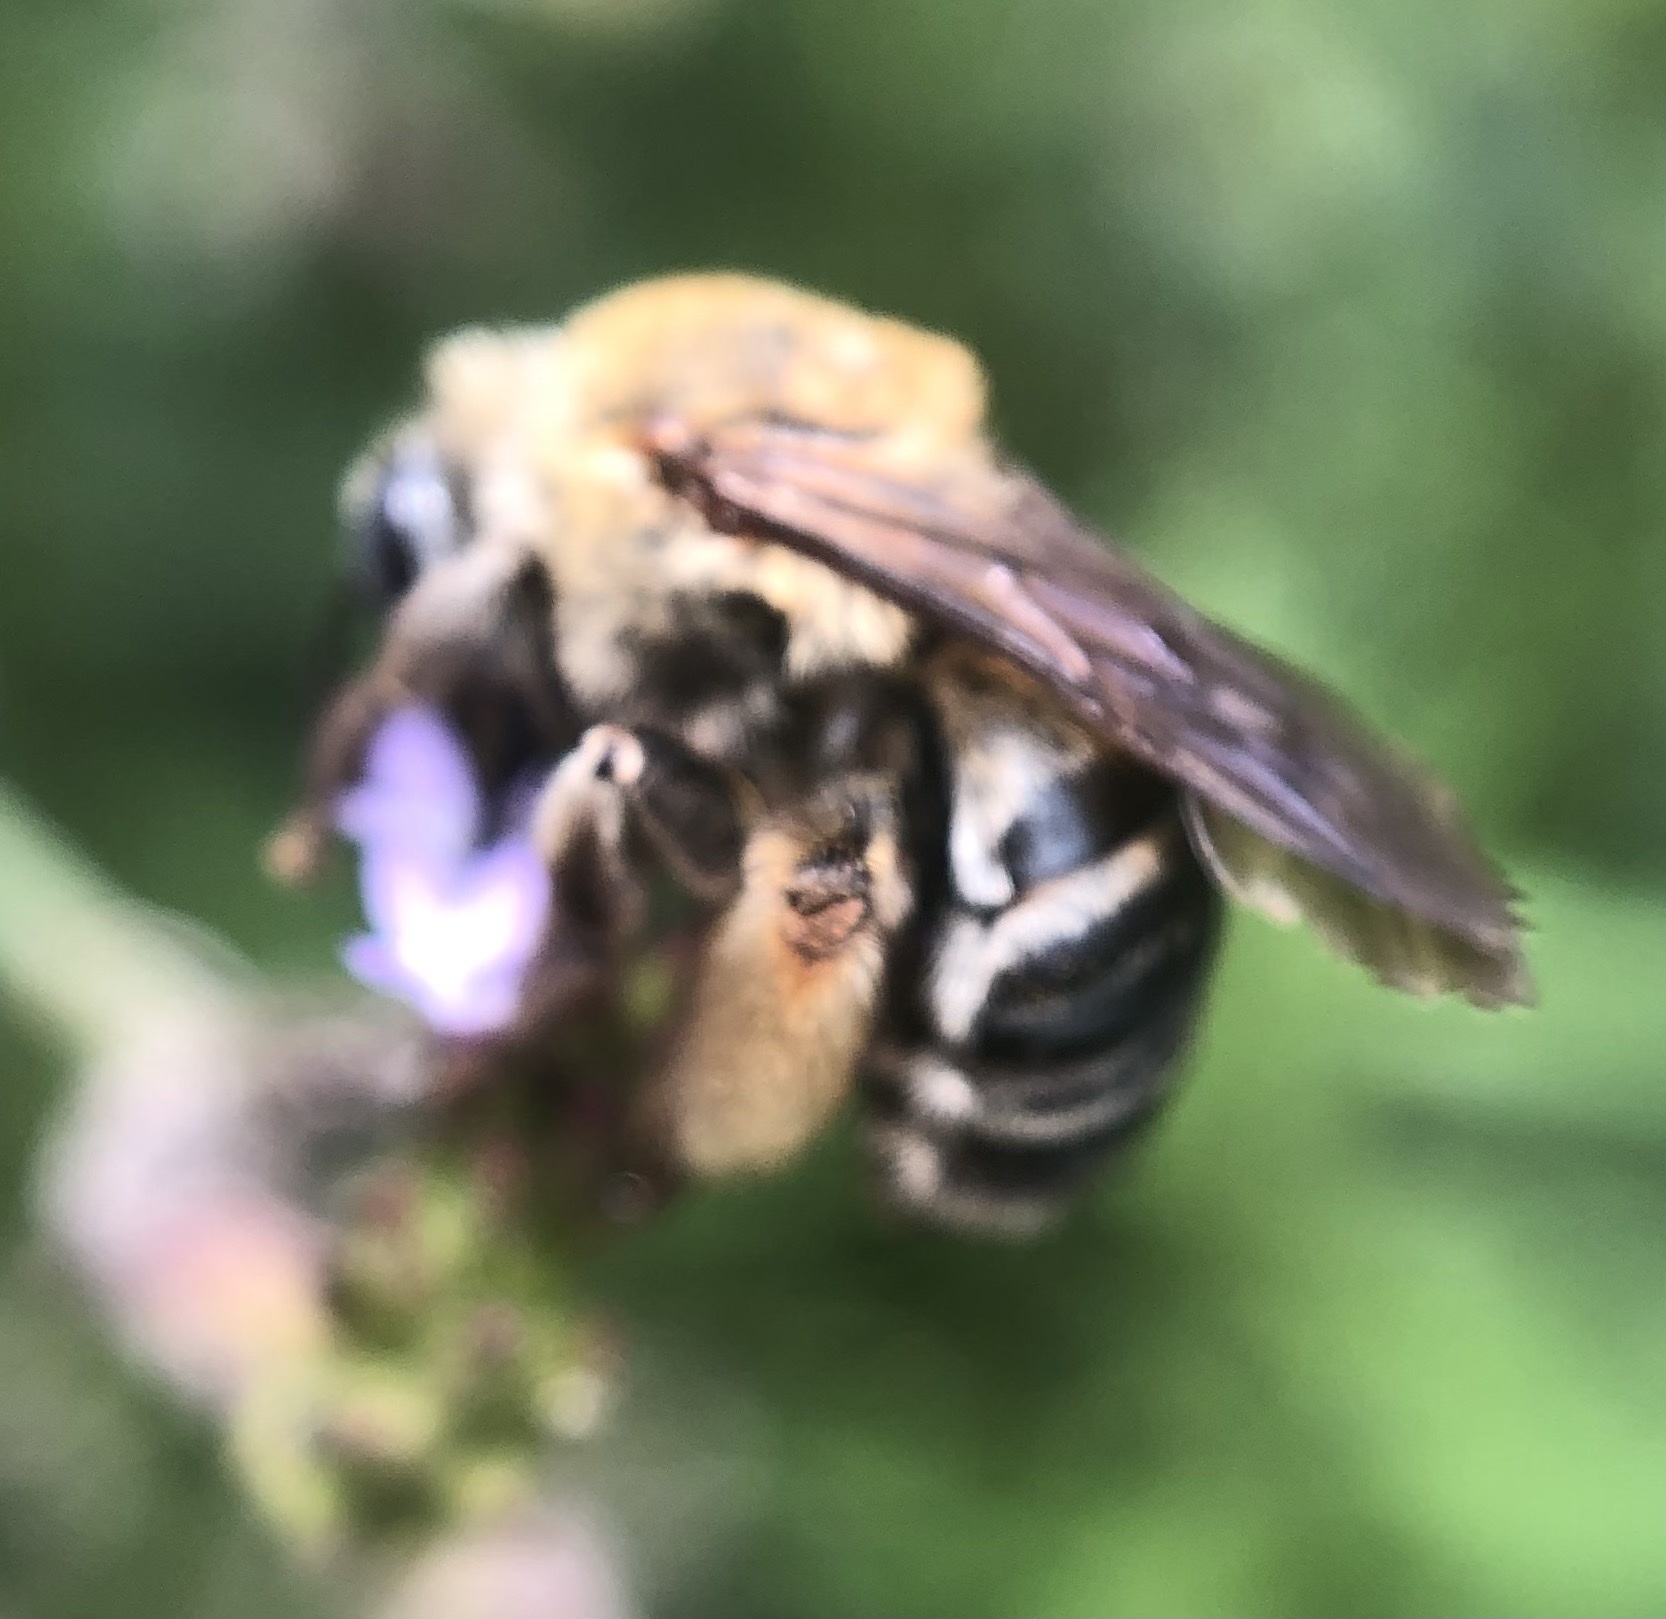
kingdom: Animalia
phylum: Arthropoda
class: Insecta
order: Hymenoptera
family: Apidae
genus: Melissodes
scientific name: Melissodes comptoides
